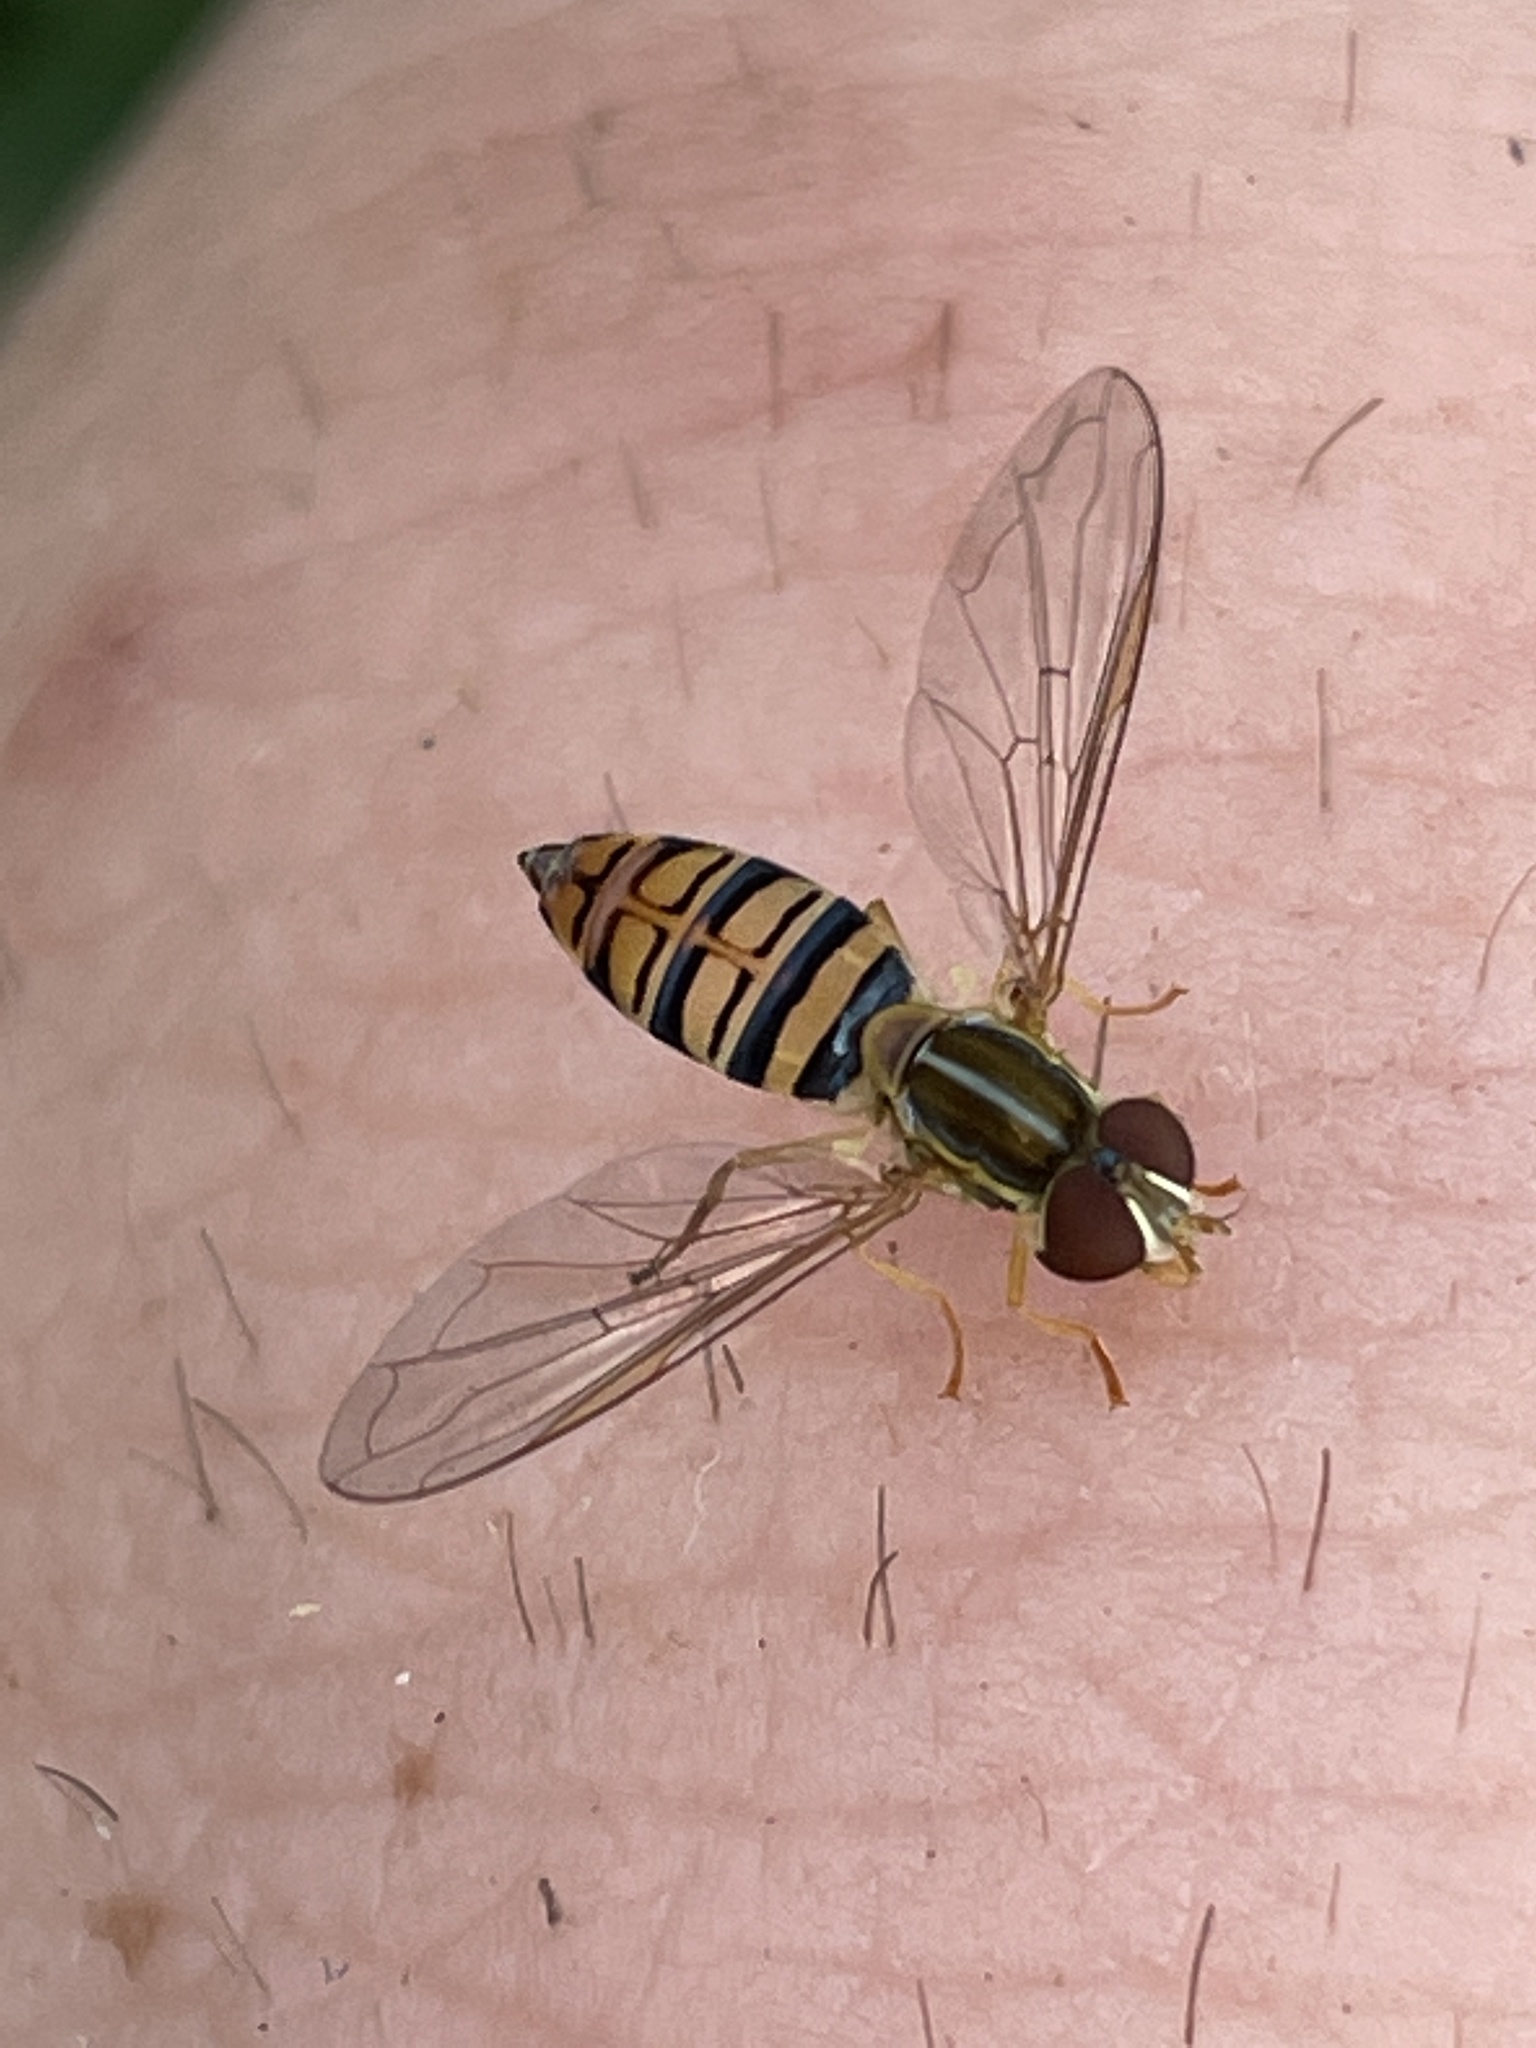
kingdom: Animalia
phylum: Arthropoda
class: Insecta
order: Diptera
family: Syrphidae
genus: Toxomerus
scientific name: Toxomerus politus
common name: Maize calligrapher
